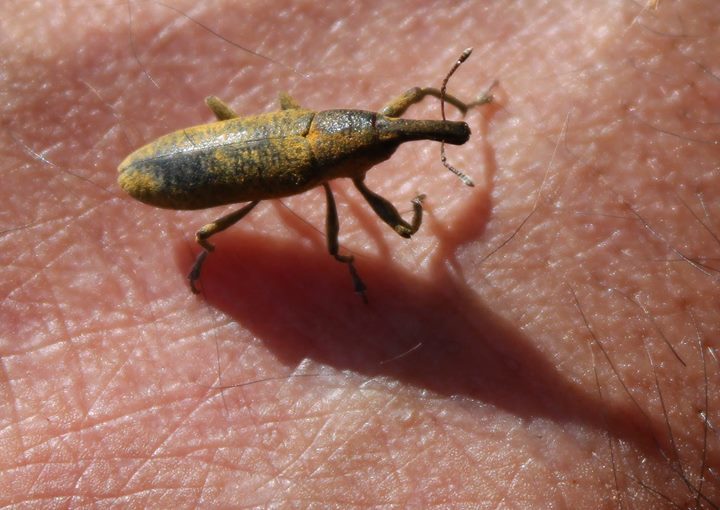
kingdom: Animalia
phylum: Arthropoda
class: Insecta
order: Coleoptera
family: Curculionidae
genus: Lixus
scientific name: Lixus pulverulentus
